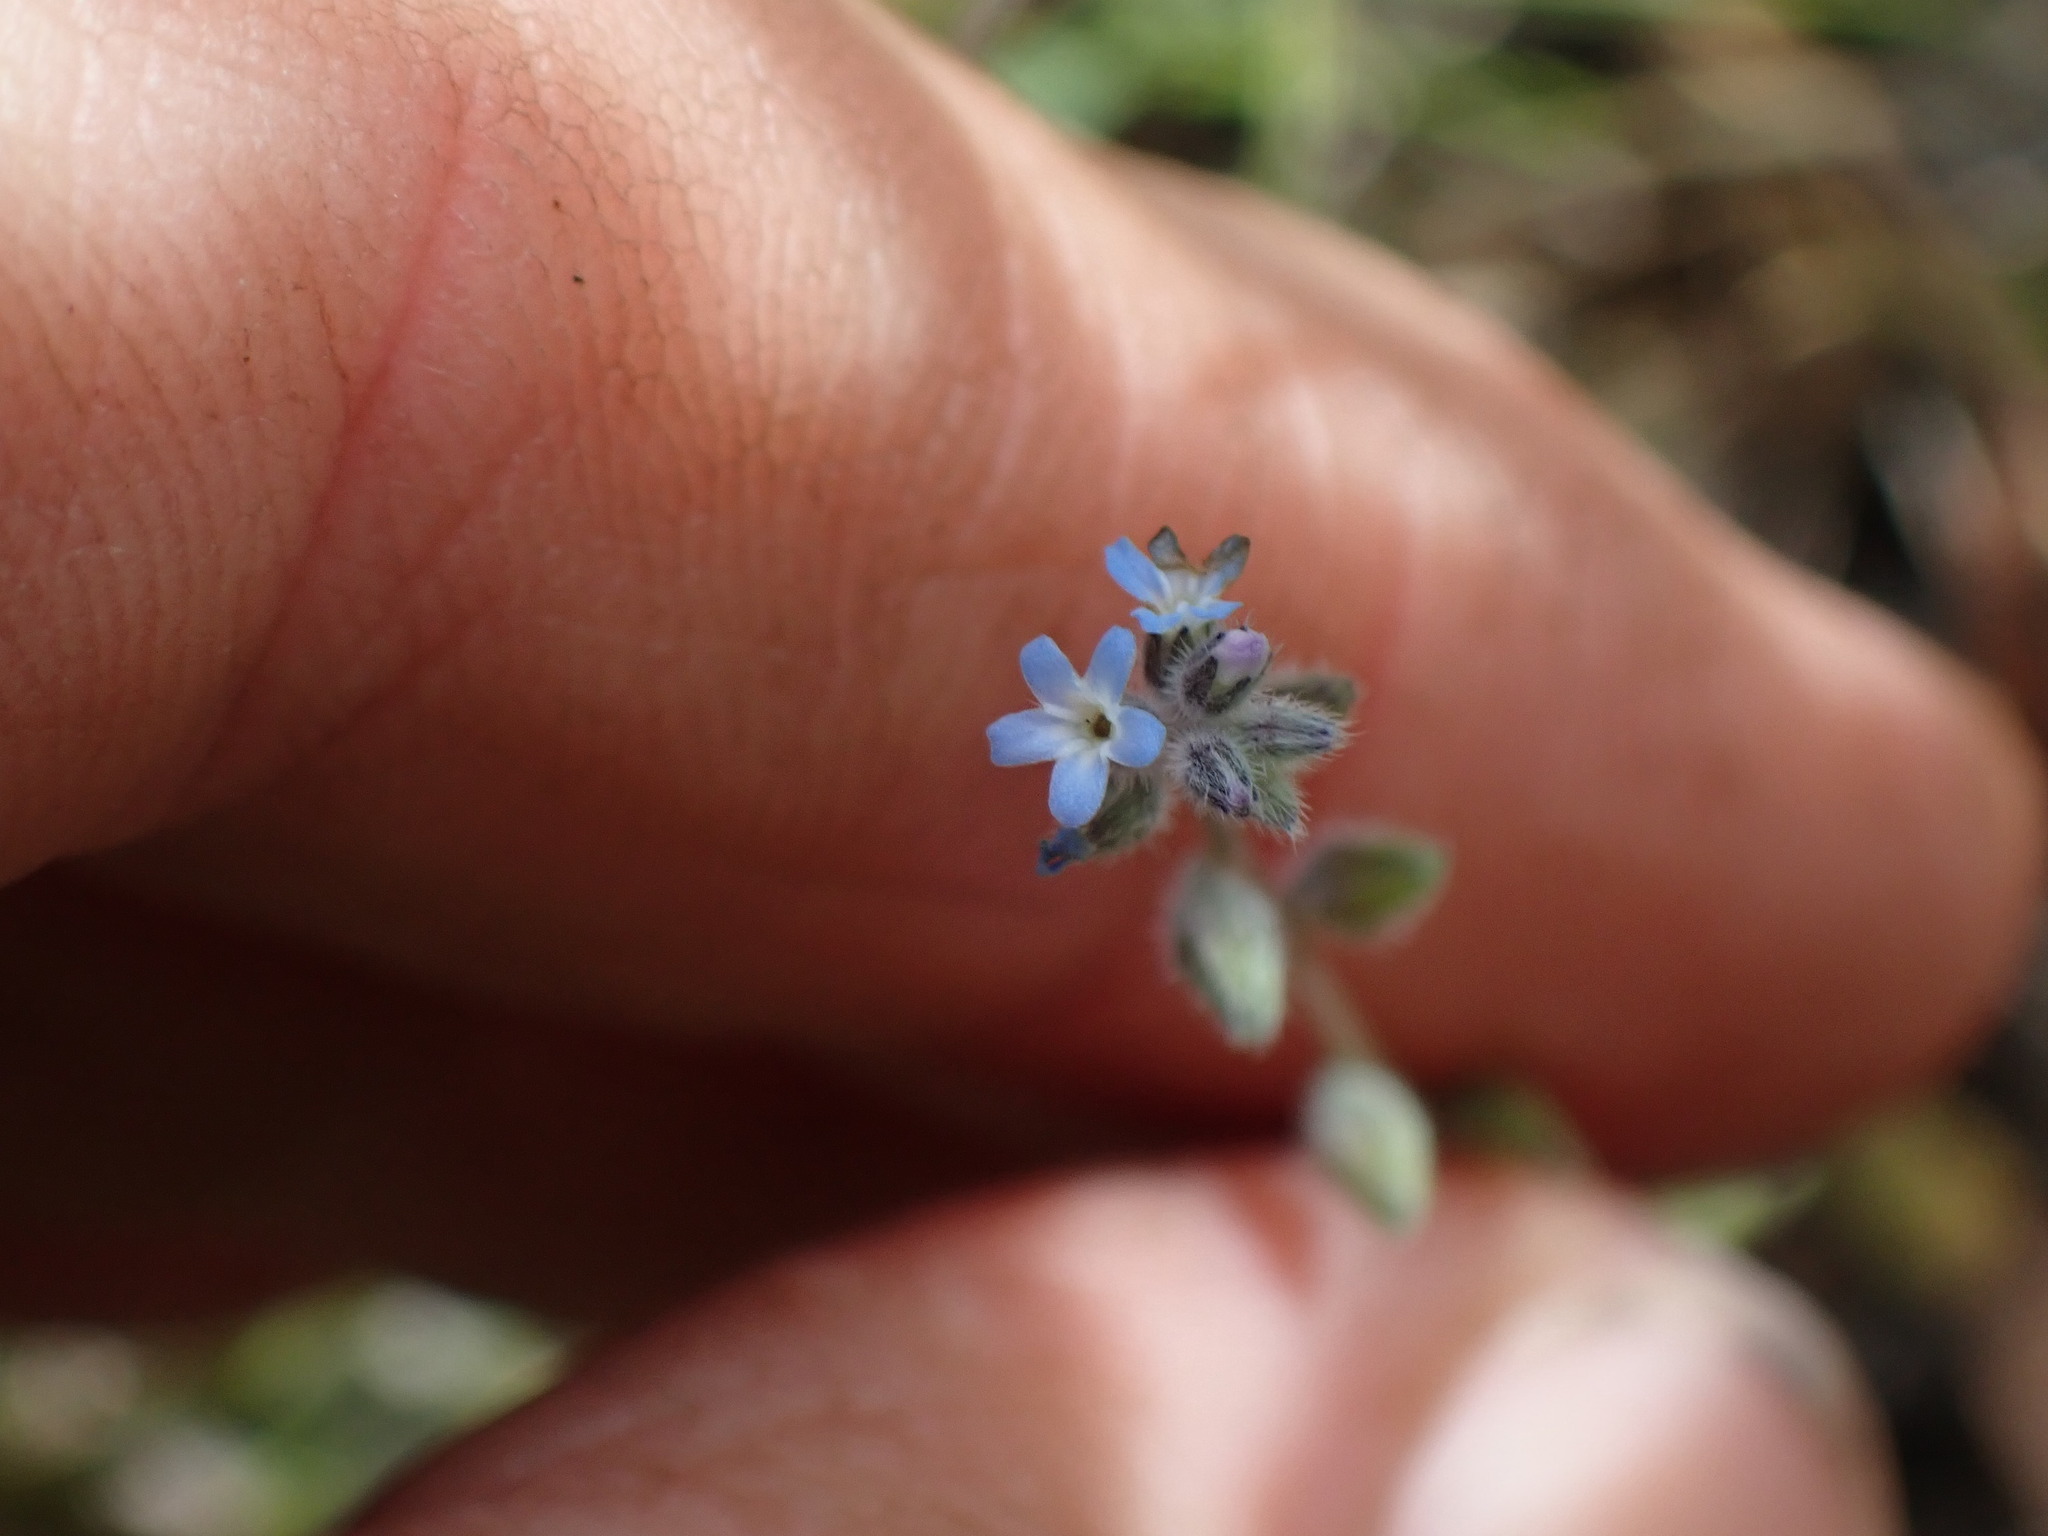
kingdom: Plantae
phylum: Tracheophyta
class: Magnoliopsida
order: Boraginales
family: Boraginaceae
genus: Myosotis
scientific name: Myosotis stricta
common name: Strict forget-me-not
